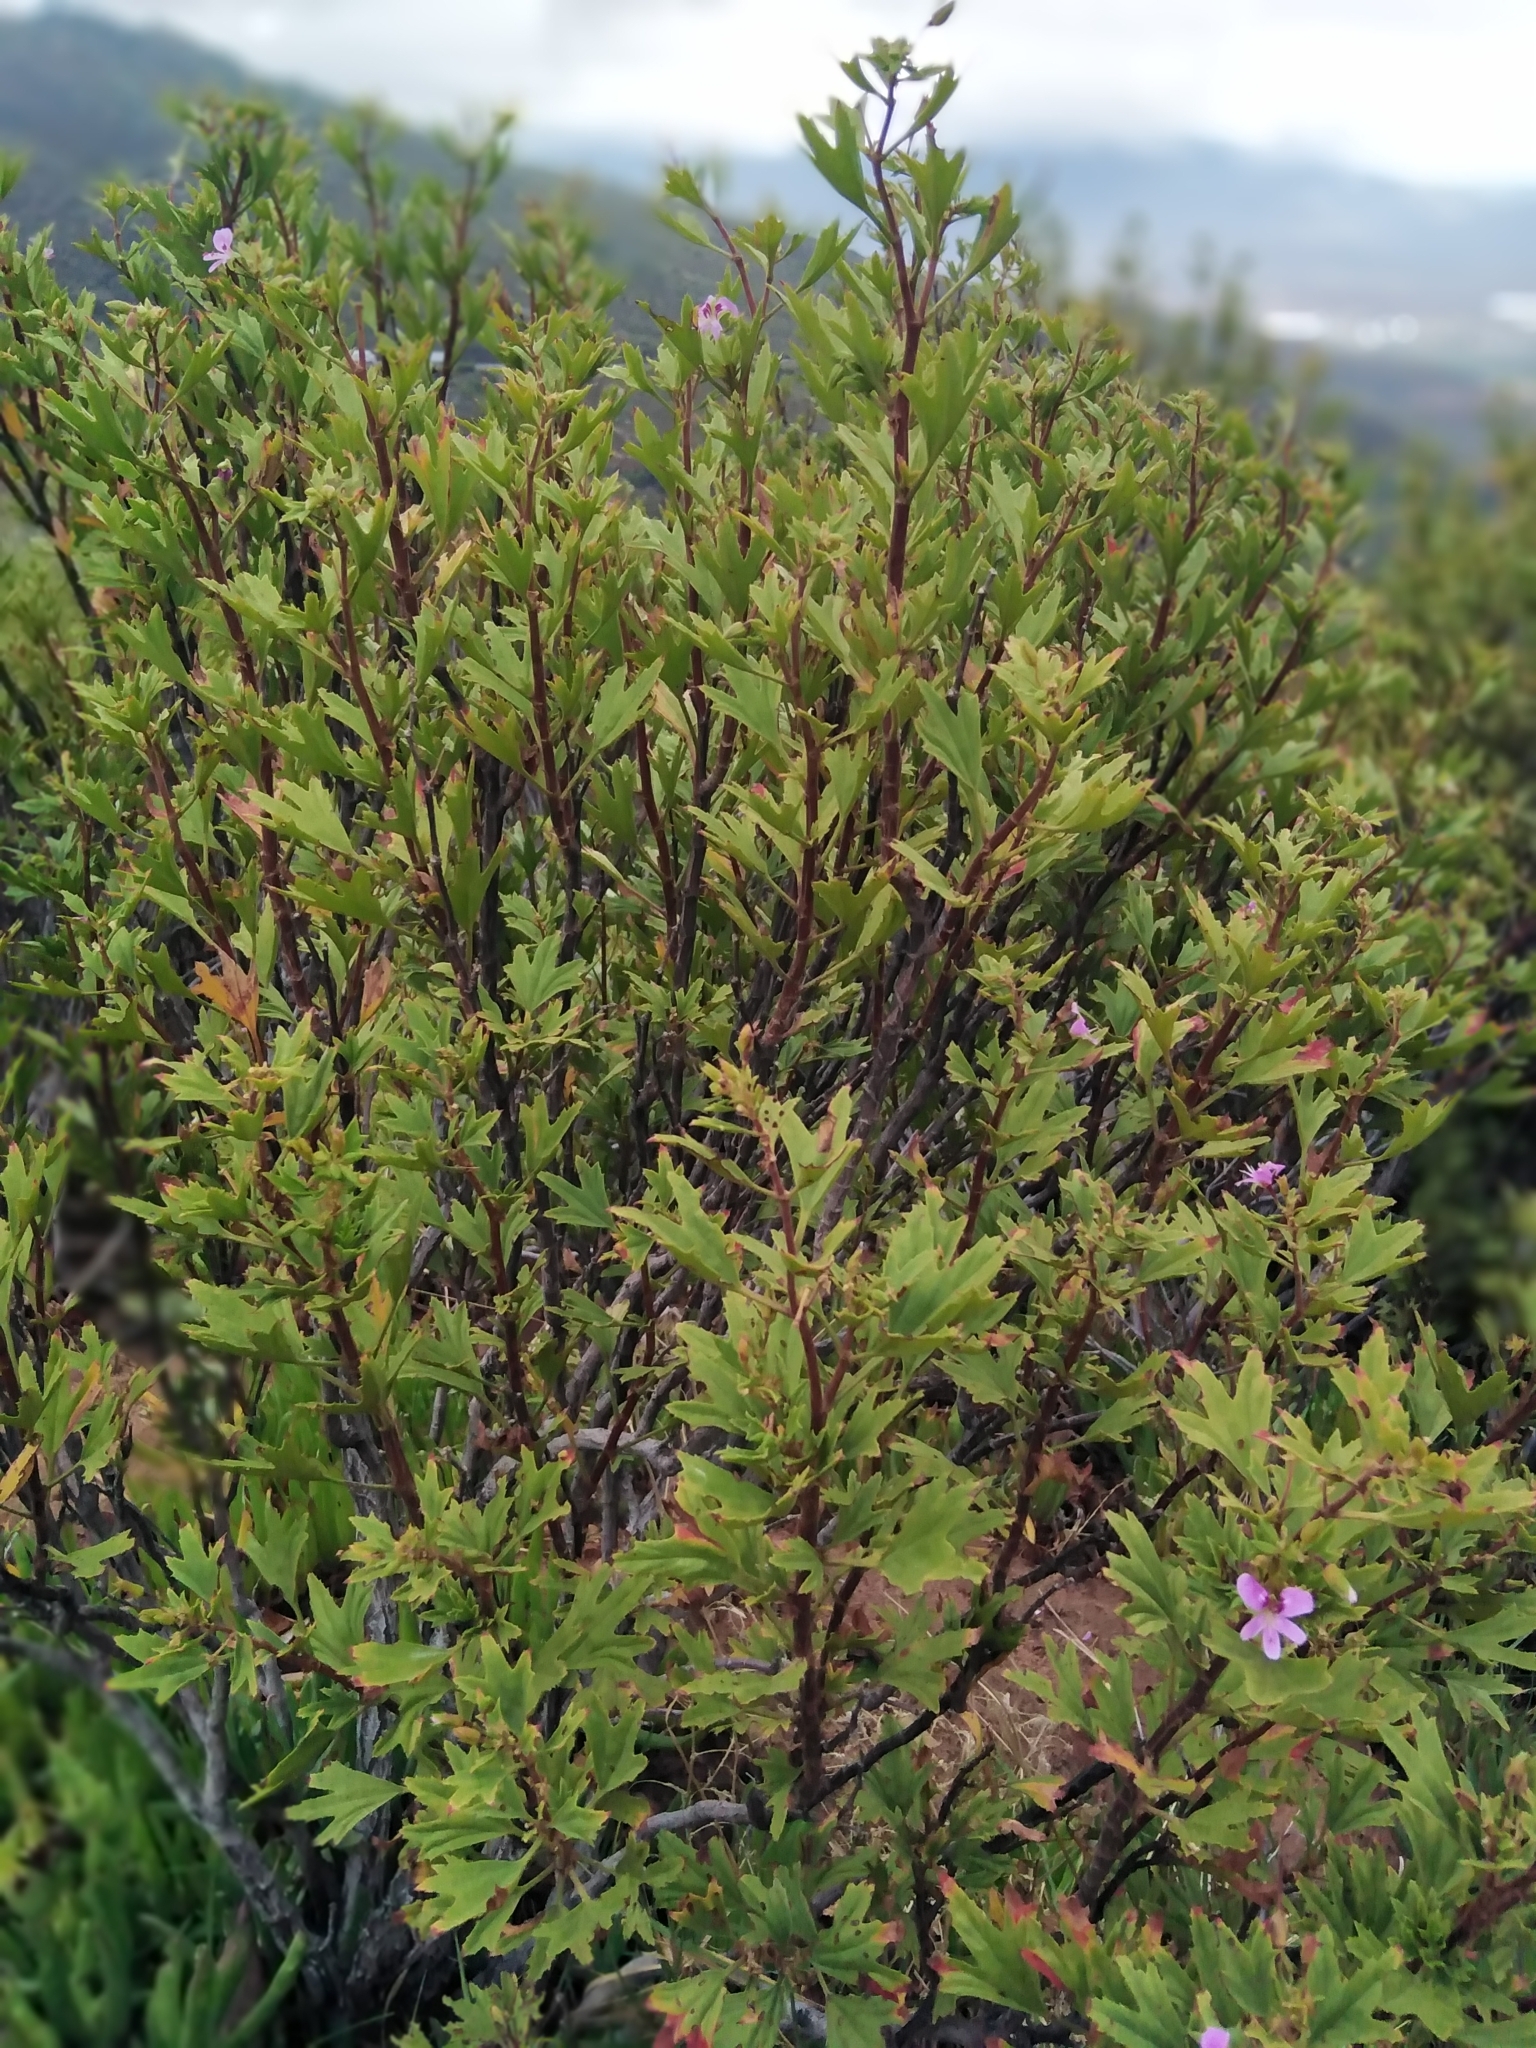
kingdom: Plantae
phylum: Tracheophyta
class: Magnoliopsida
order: Geraniales
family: Geraniaceae
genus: Pelargonium
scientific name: Pelargonium scabrum
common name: Apricot geranium
